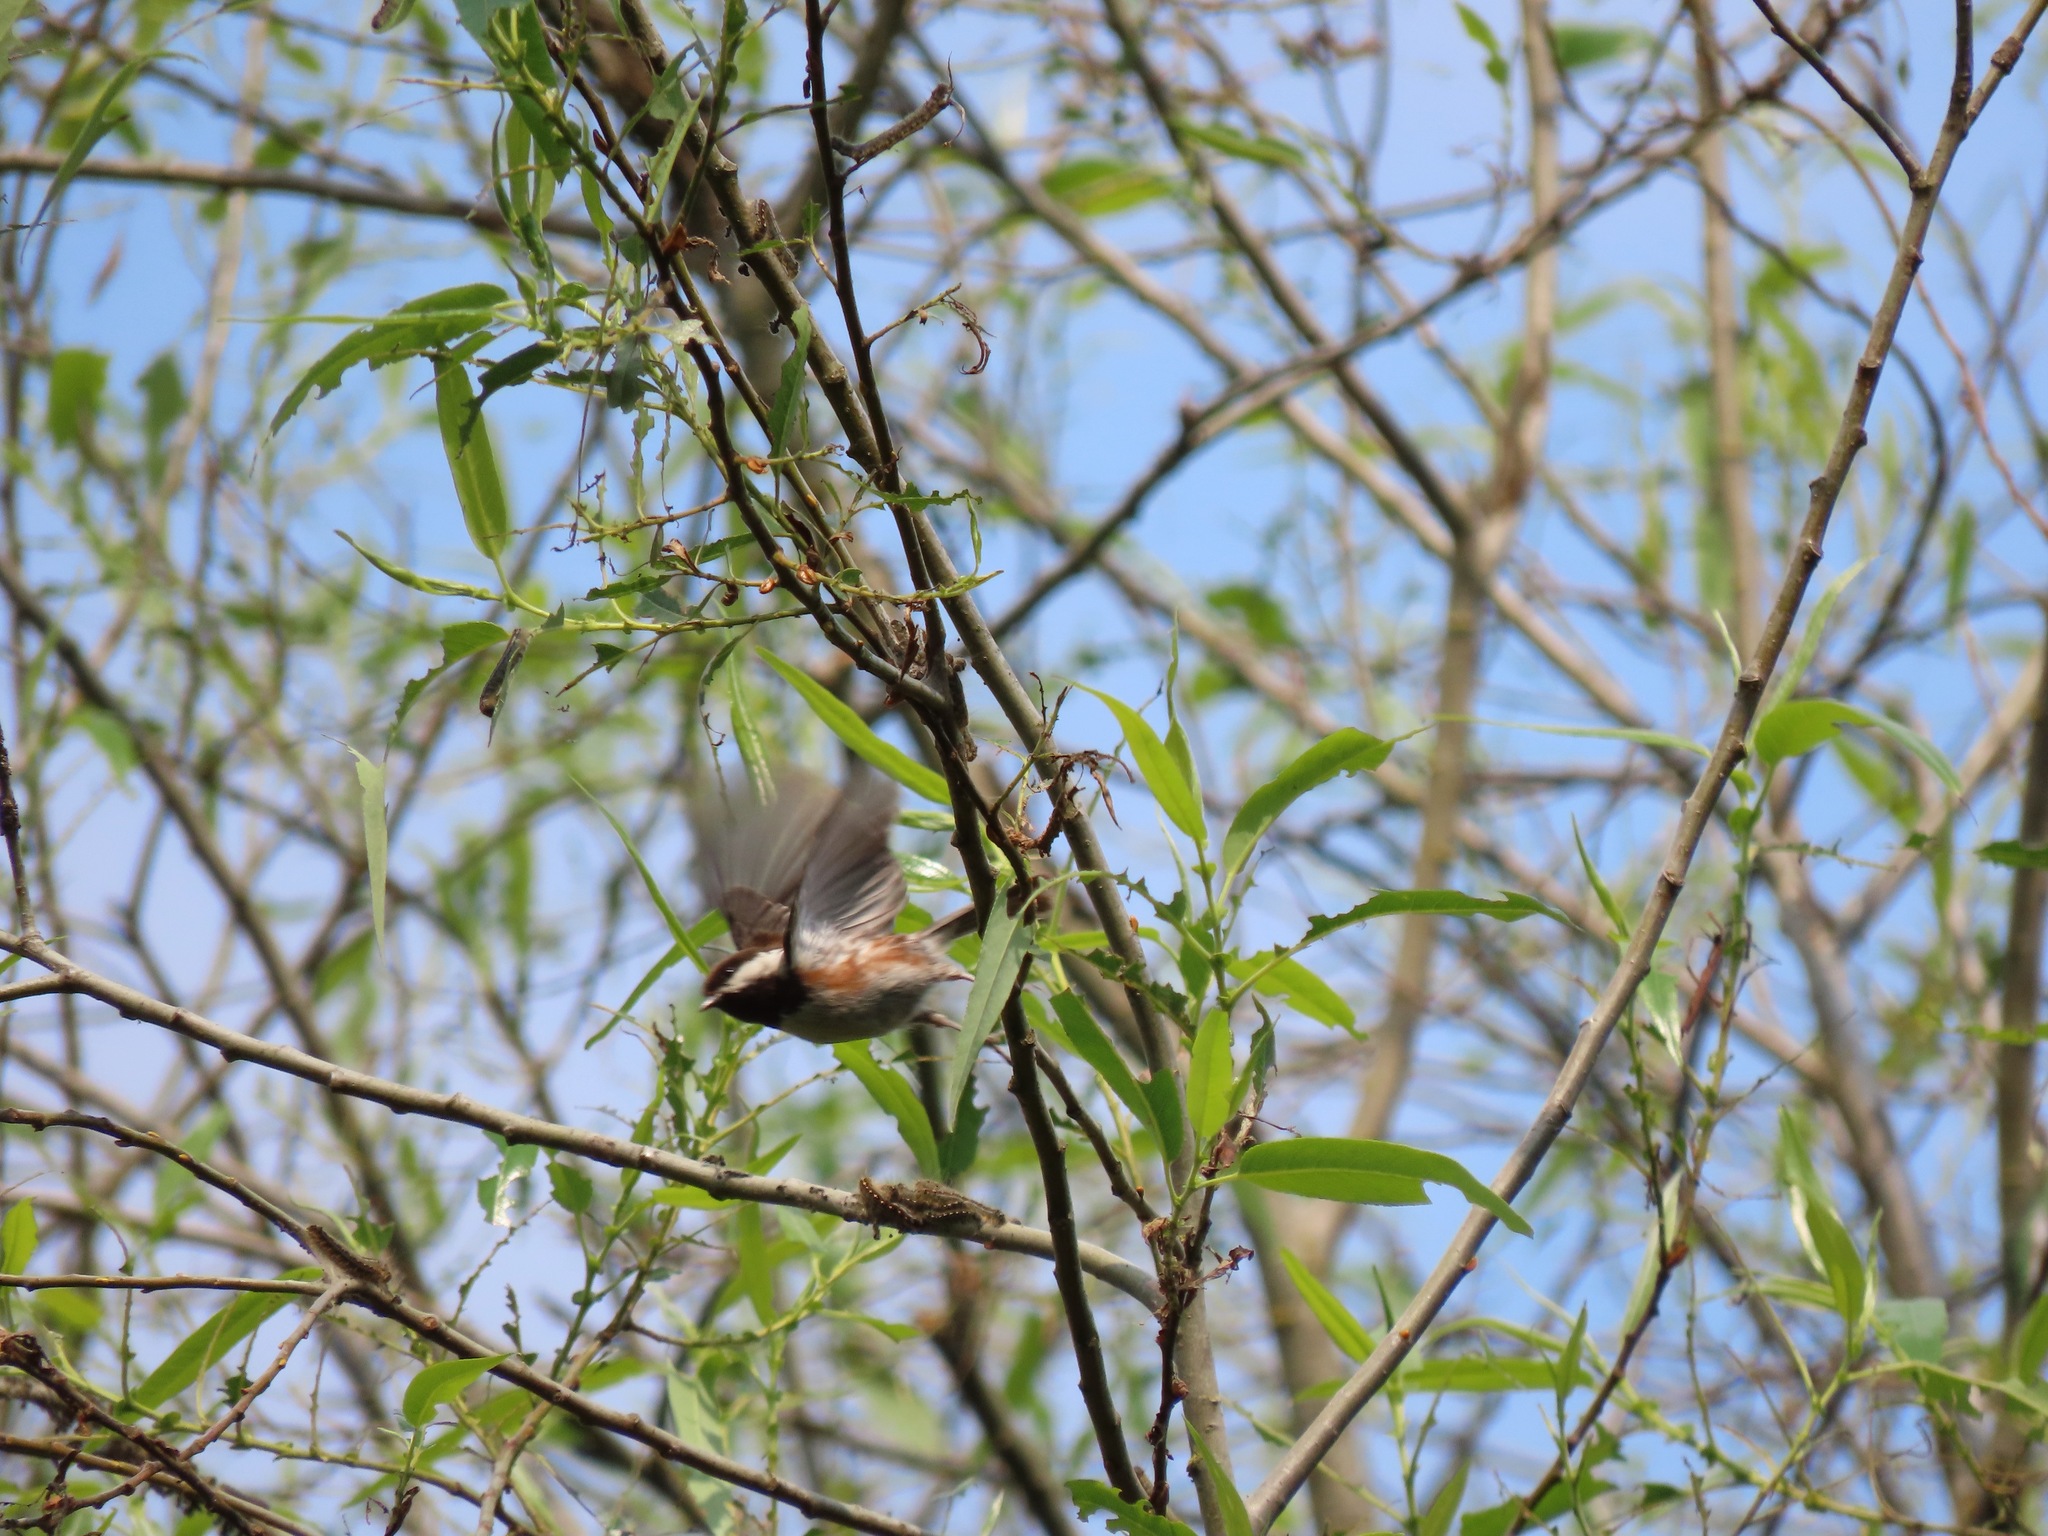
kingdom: Animalia
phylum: Chordata
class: Aves
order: Passeriformes
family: Paridae
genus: Poecile
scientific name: Poecile rufescens
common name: Chestnut-backed chickadee
